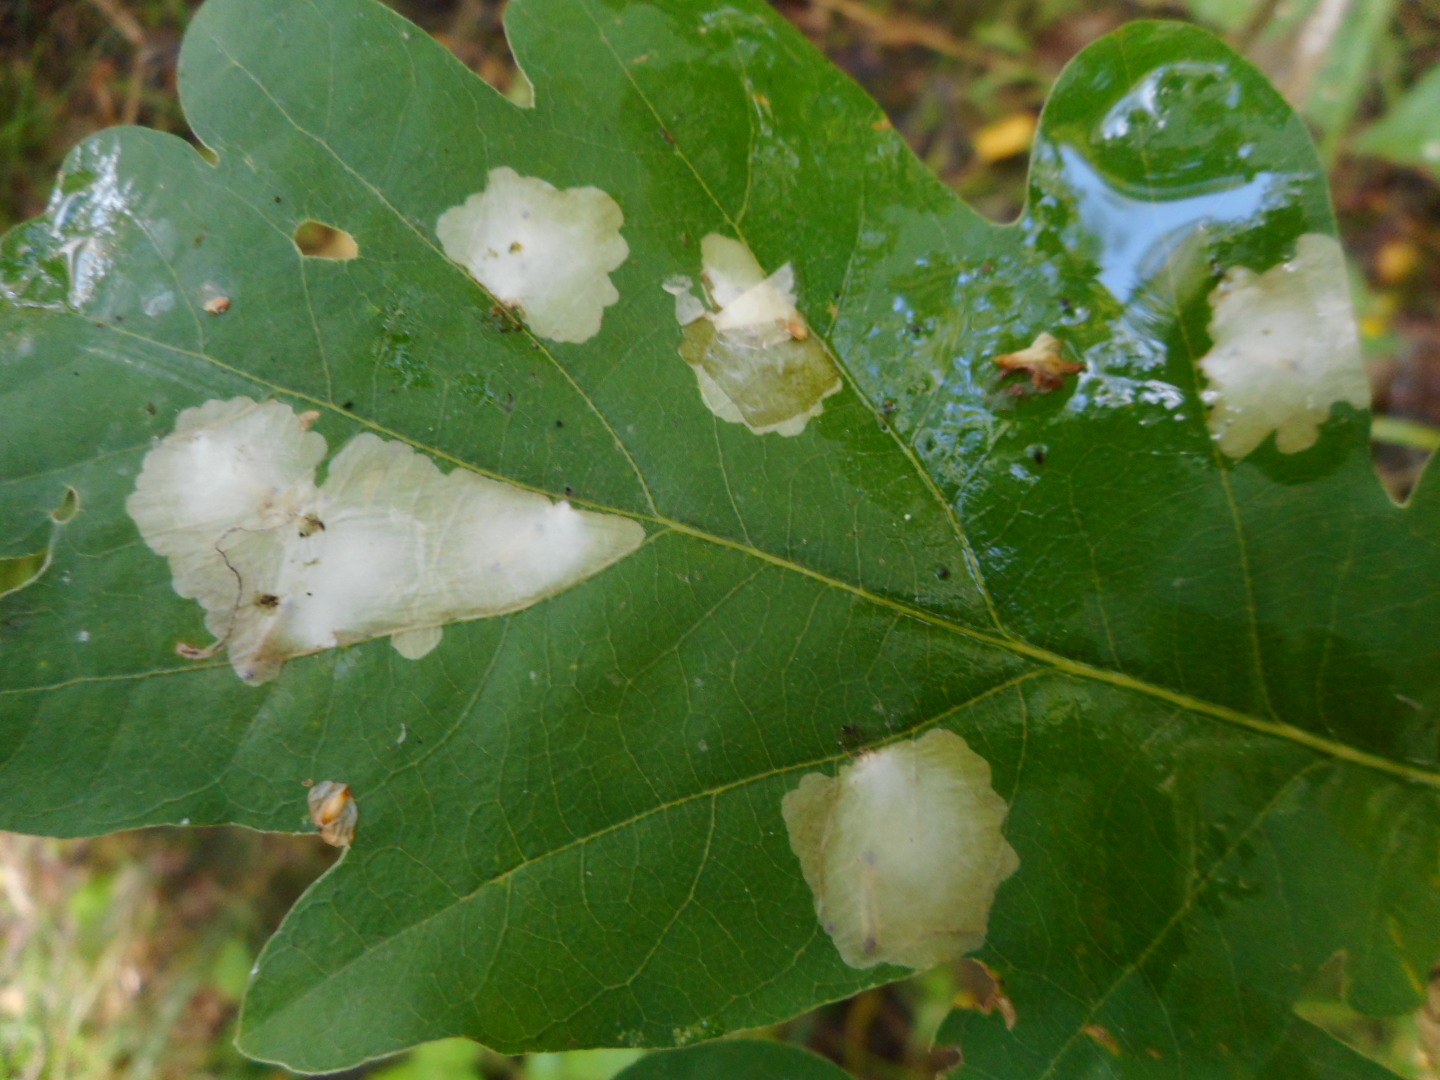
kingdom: Animalia
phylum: Arthropoda
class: Insecta
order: Lepidoptera
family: Tischeriidae
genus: Tischeria
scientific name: Tischeria ekebladella
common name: Oak carl
